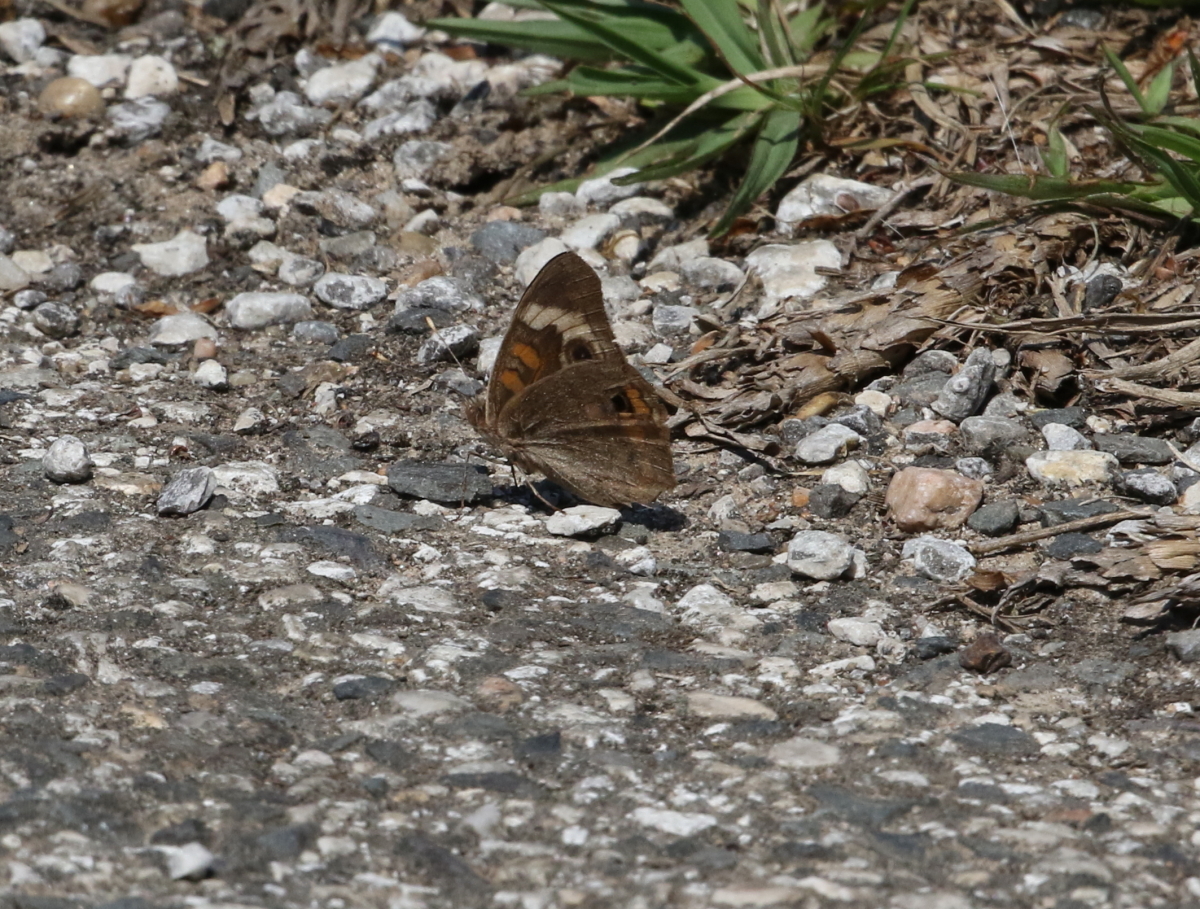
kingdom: Animalia
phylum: Arthropoda
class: Insecta
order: Lepidoptera
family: Nymphalidae
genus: Junonia
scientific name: Junonia coenia
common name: Common buckeye
